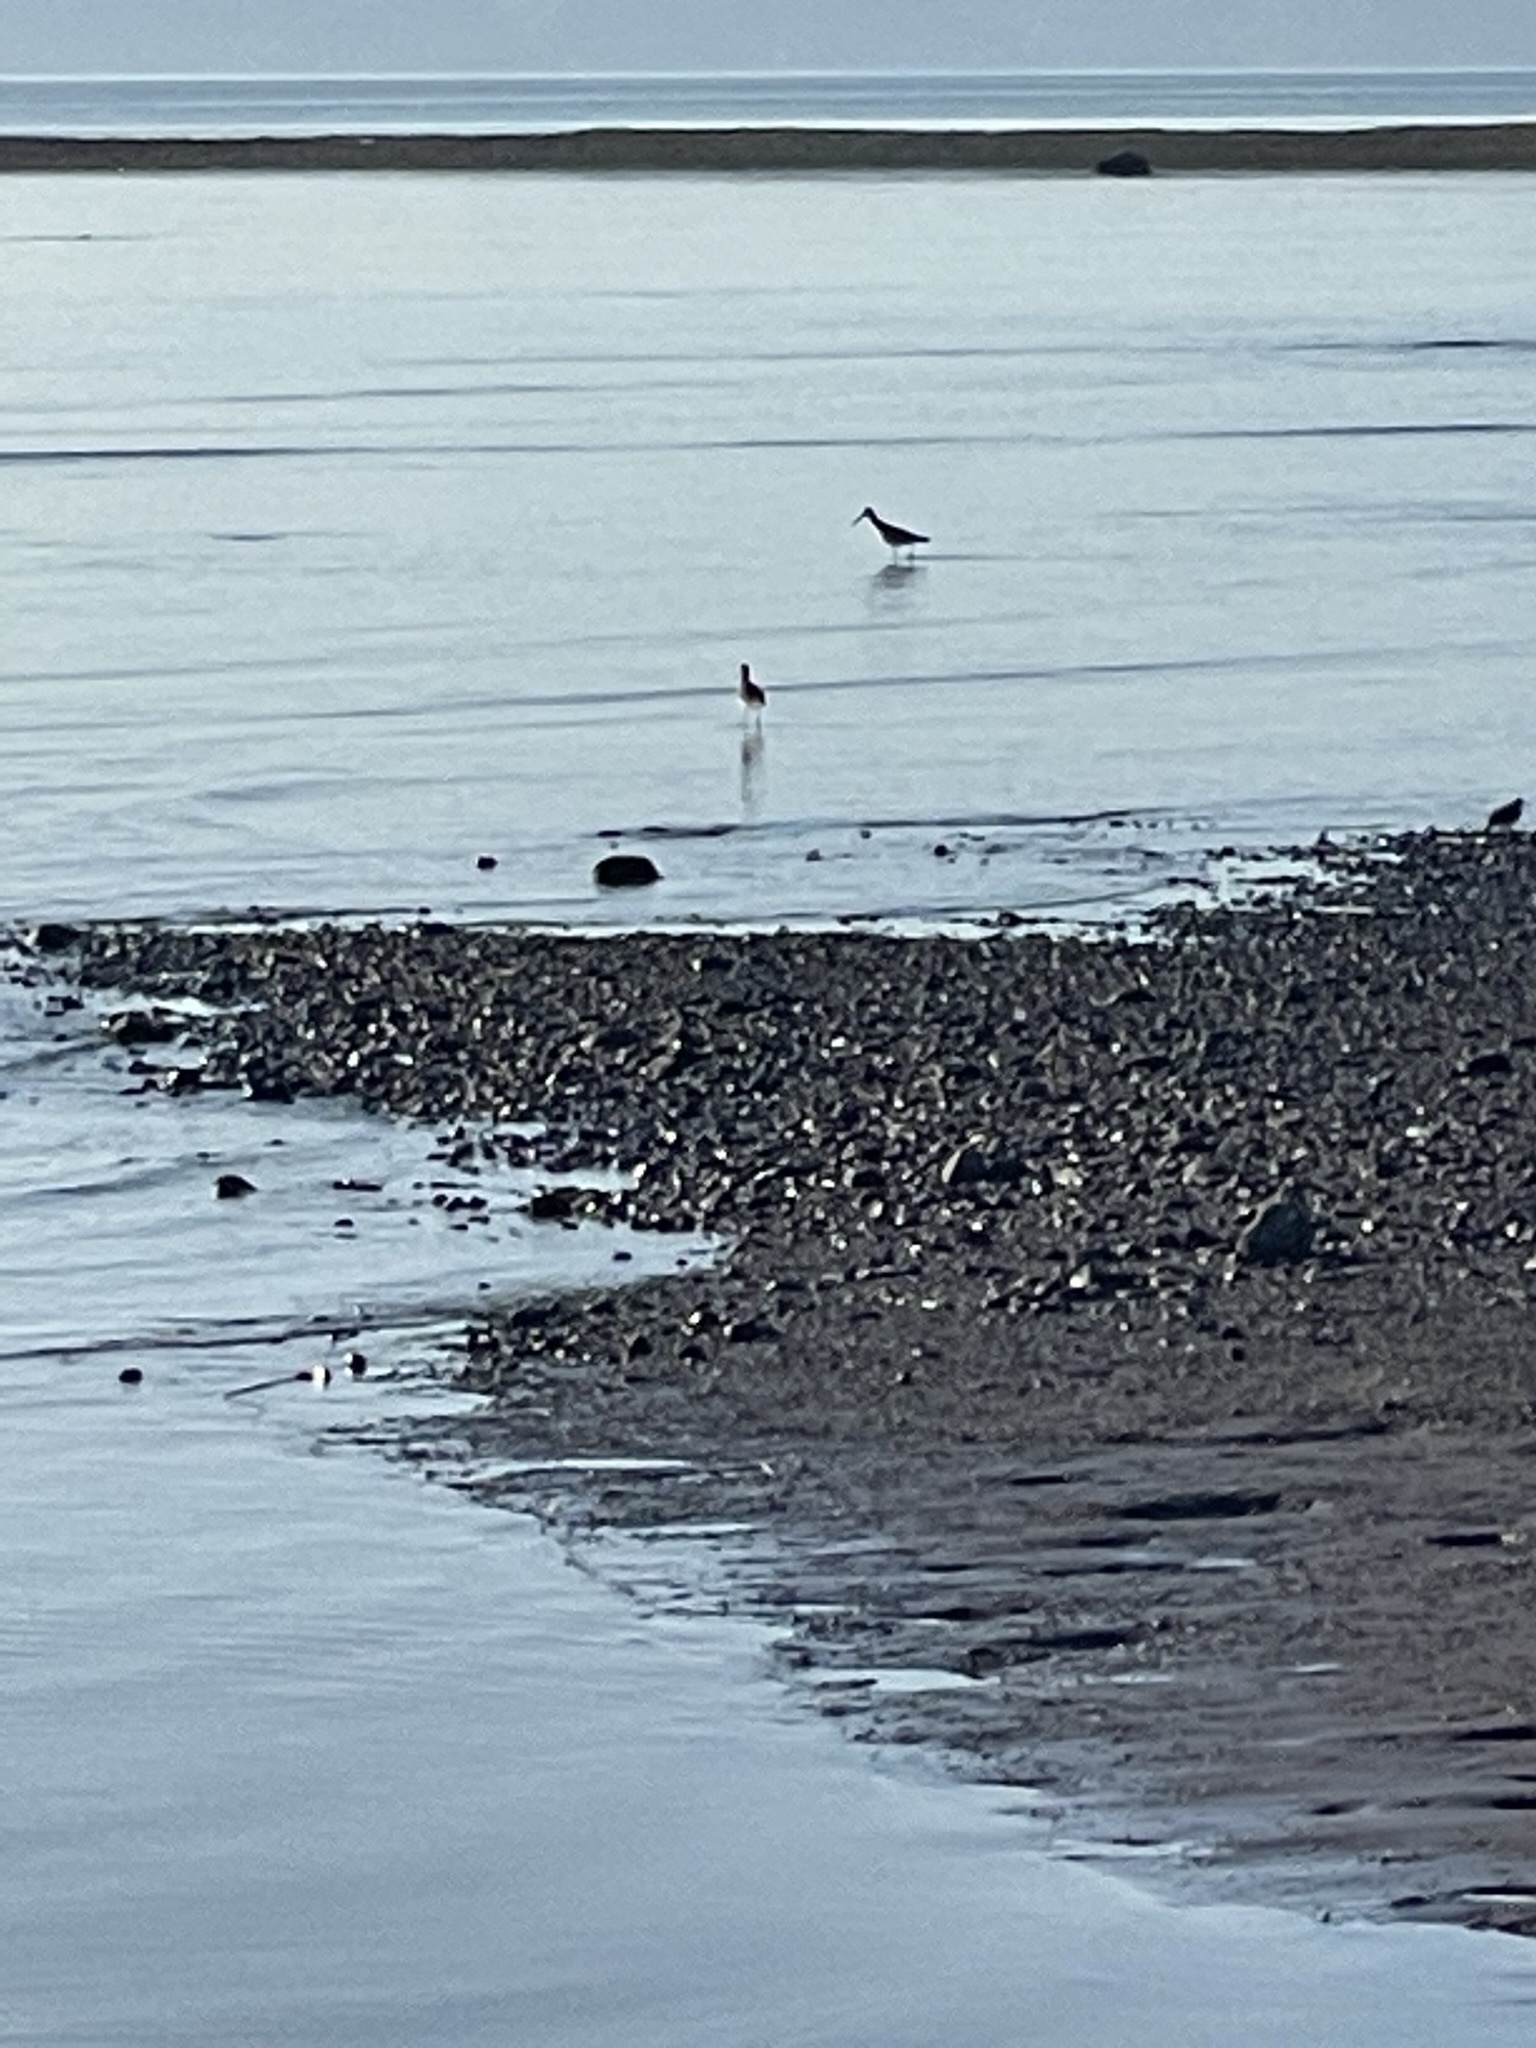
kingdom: Animalia
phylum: Chordata
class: Aves
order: Charadriiformes
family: Scolopacidae
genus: Tringa
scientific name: Tringa semipalmata
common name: Willet
